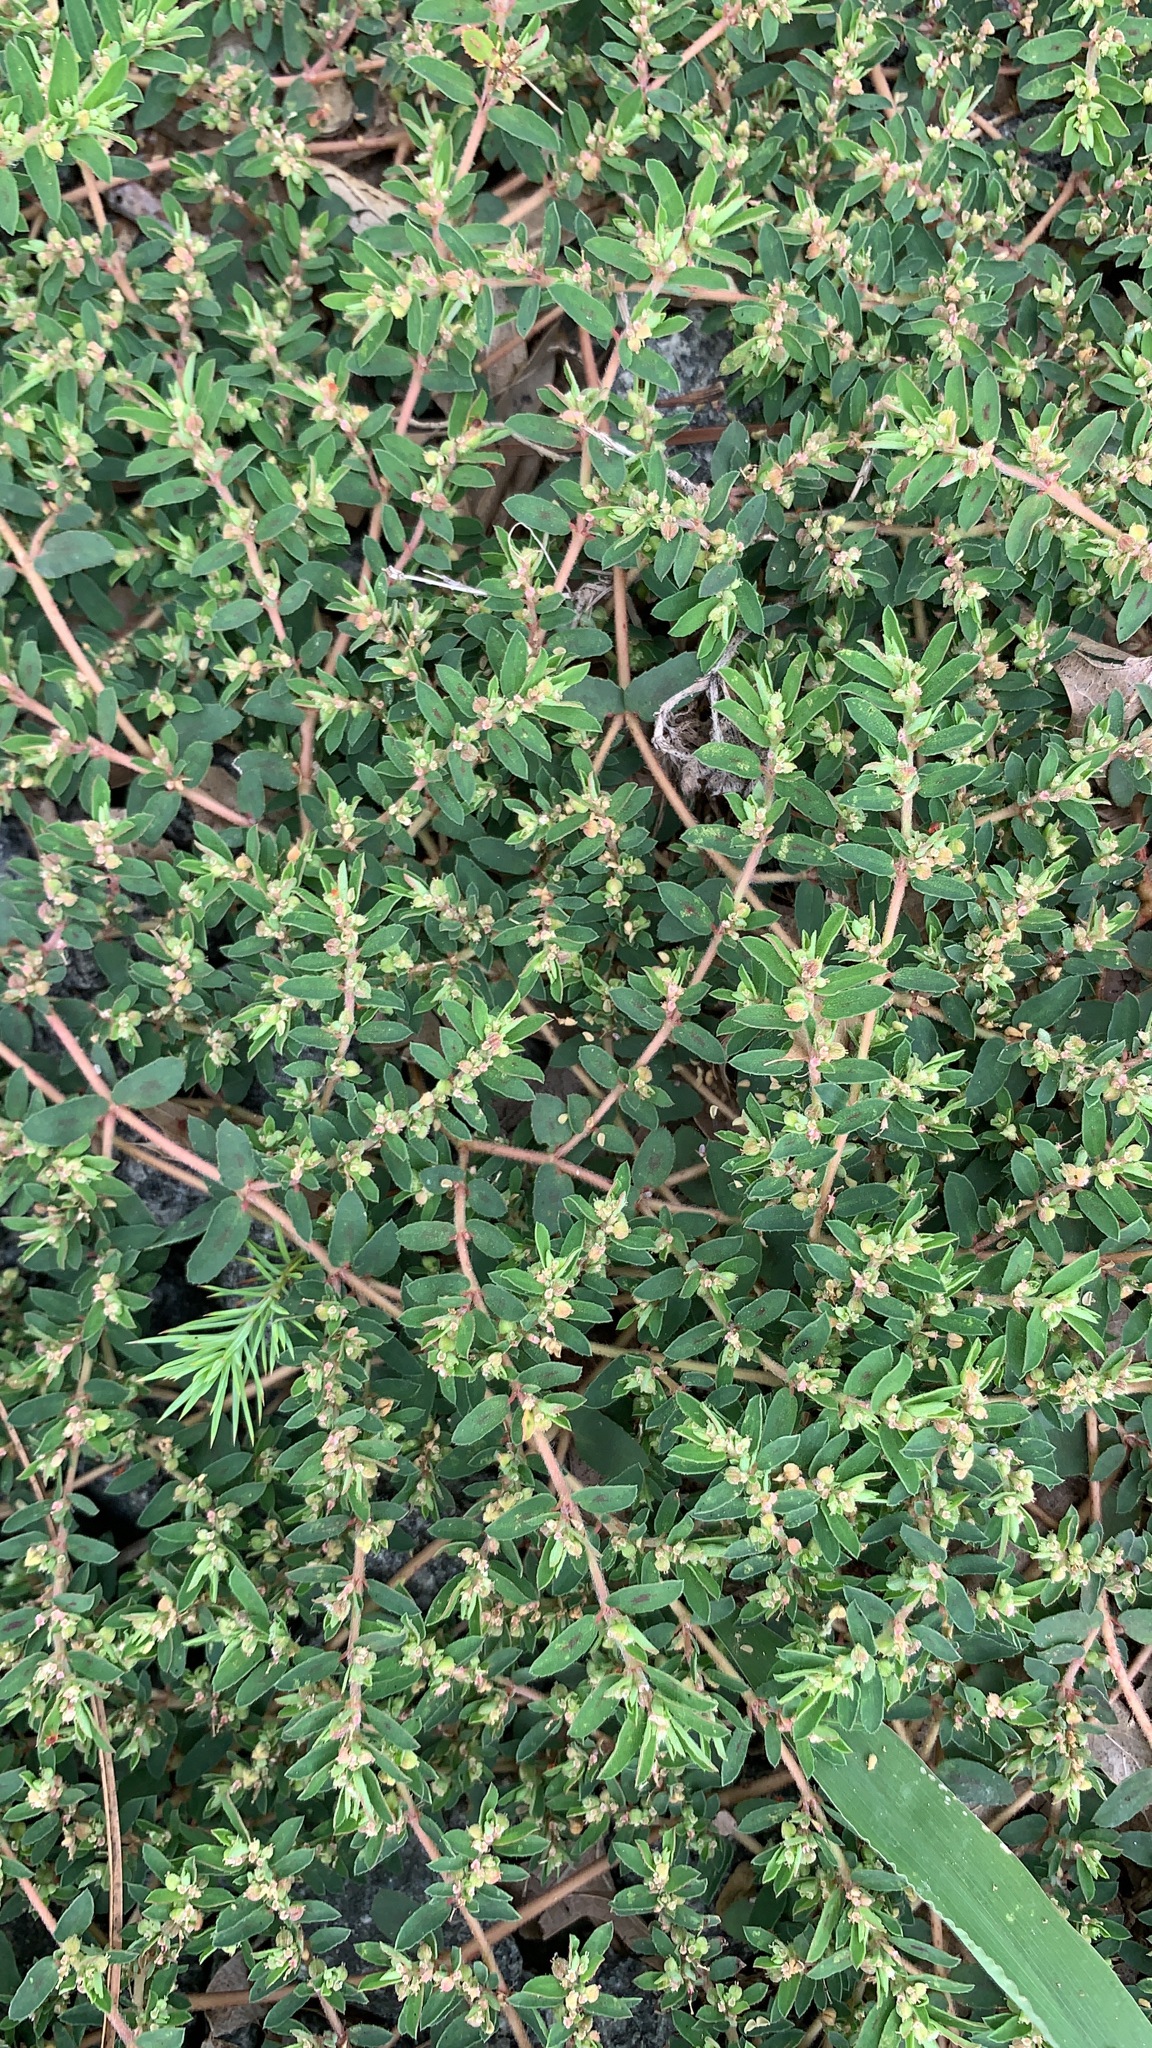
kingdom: Plantae
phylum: Tracheophyta
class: Magnoliopsida
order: Malpighiales
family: Euphorbiaceae
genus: Euphorbia
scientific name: Euphorbia maculata
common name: Spotted spurge
